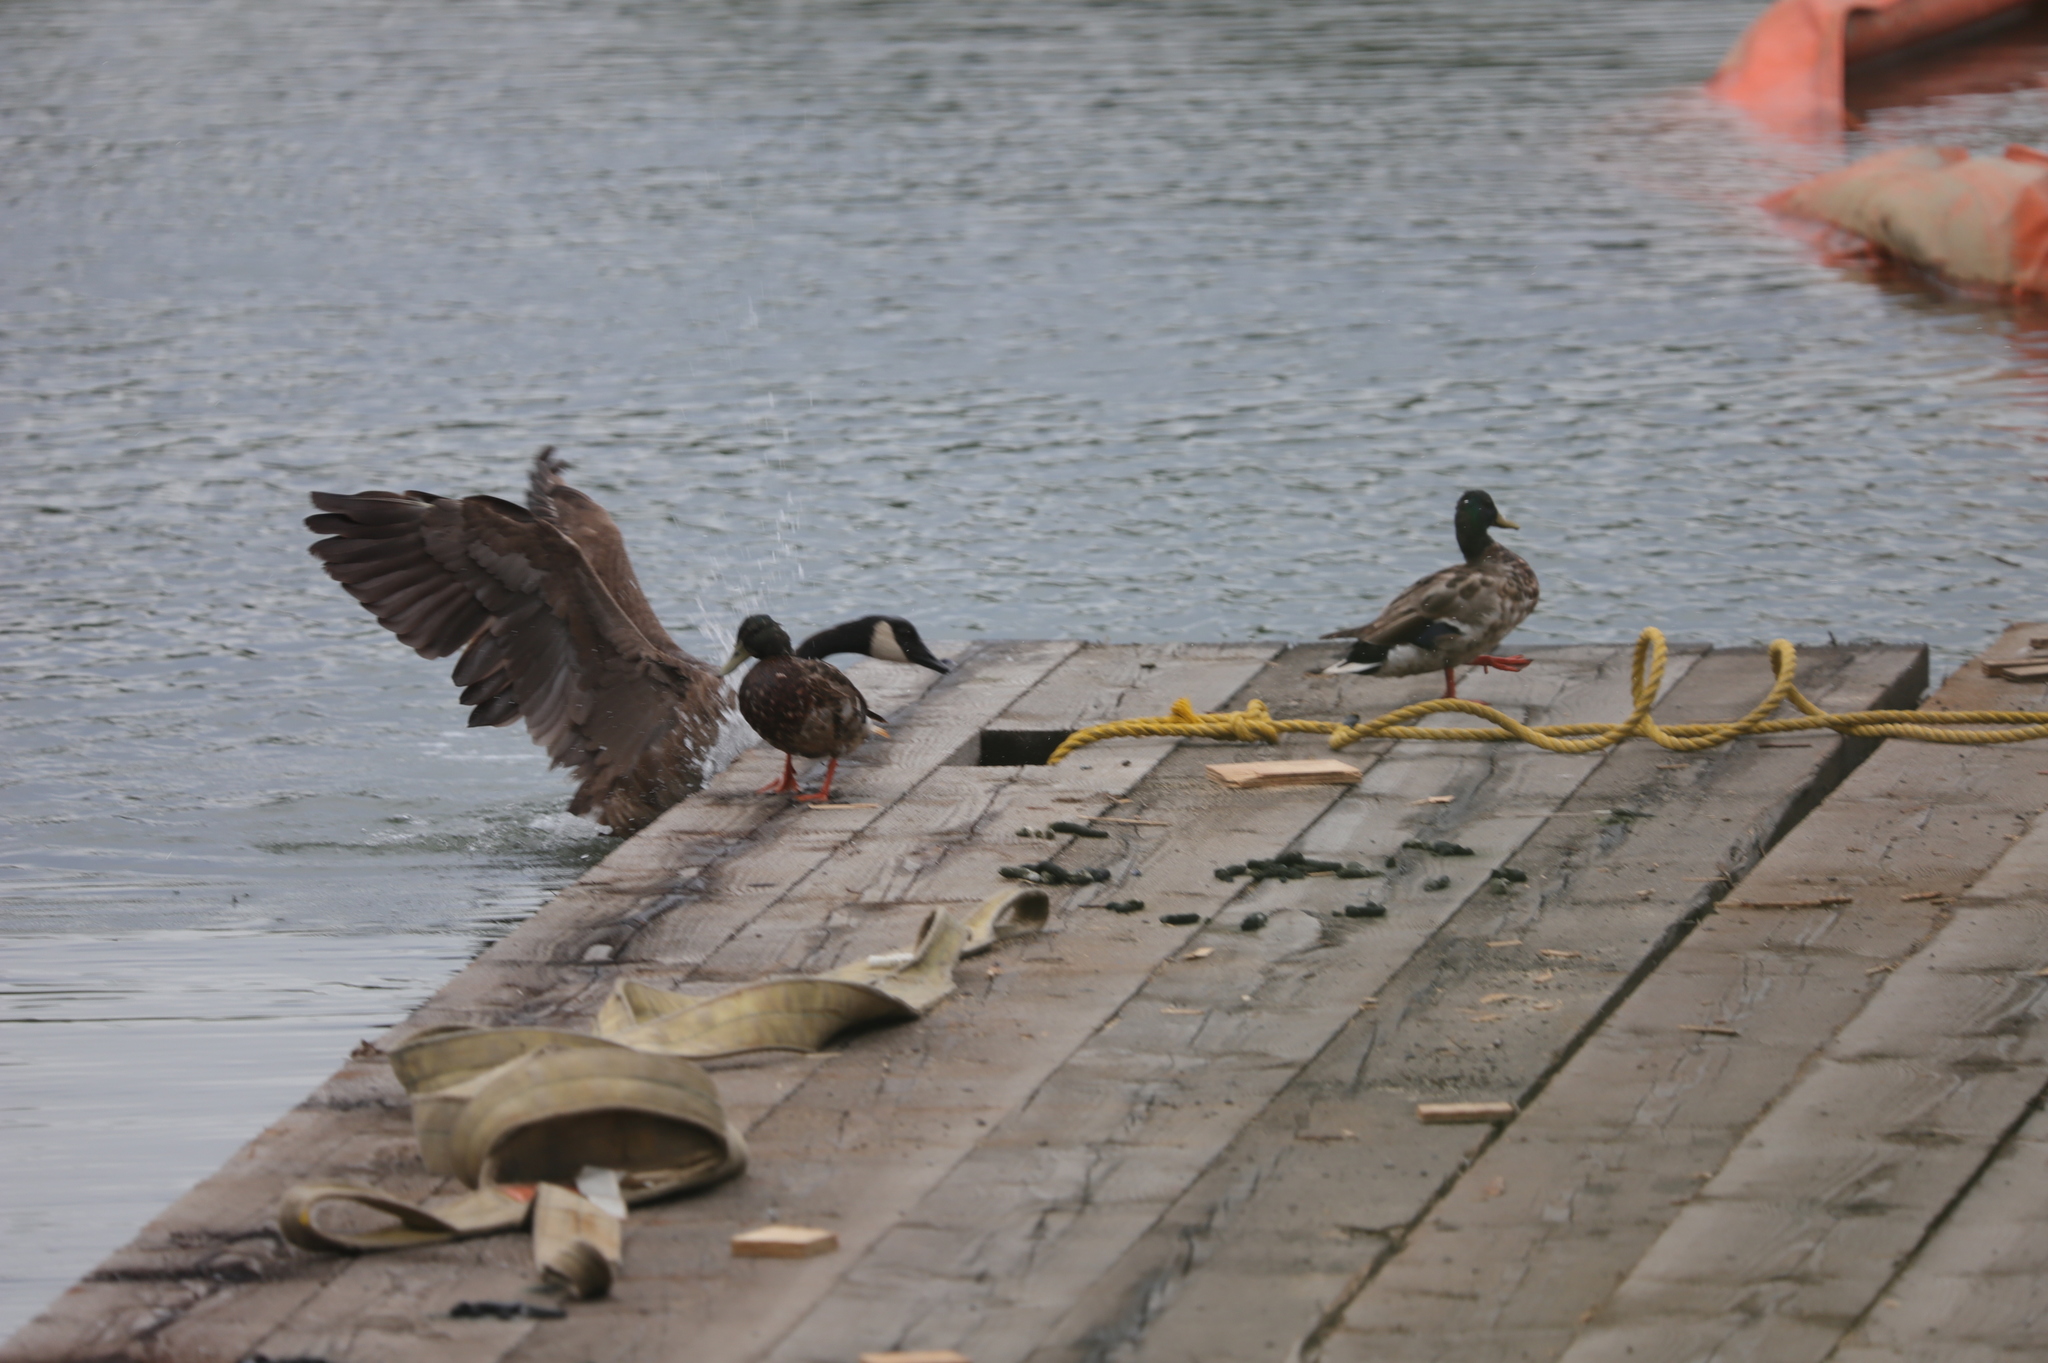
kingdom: Animalia
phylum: Chordata
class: Aves
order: Anseriformes
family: Anatidae
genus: Anas
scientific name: Anas platyrhynchos
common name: Mallard
